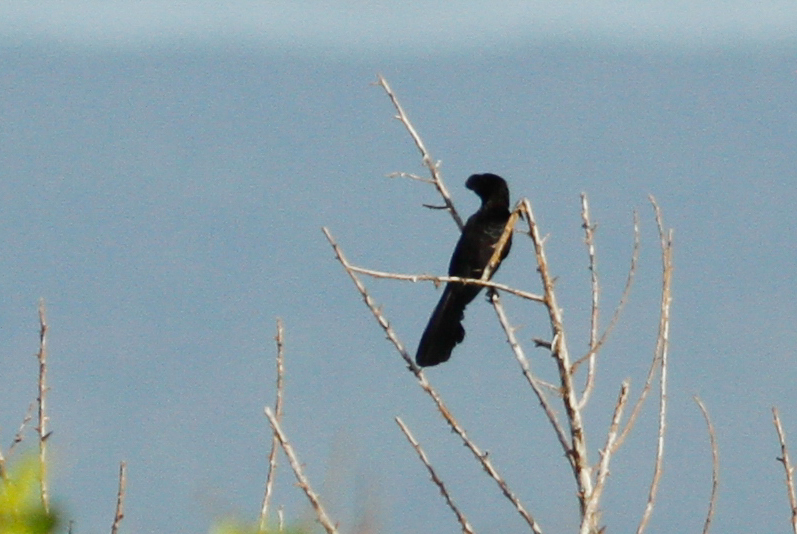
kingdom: Animalia
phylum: Chordata
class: Aves
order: Cuculiformes
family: Cuculidae
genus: Crotophaga
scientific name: Crotophaga ani
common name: Smooth-billed ani
